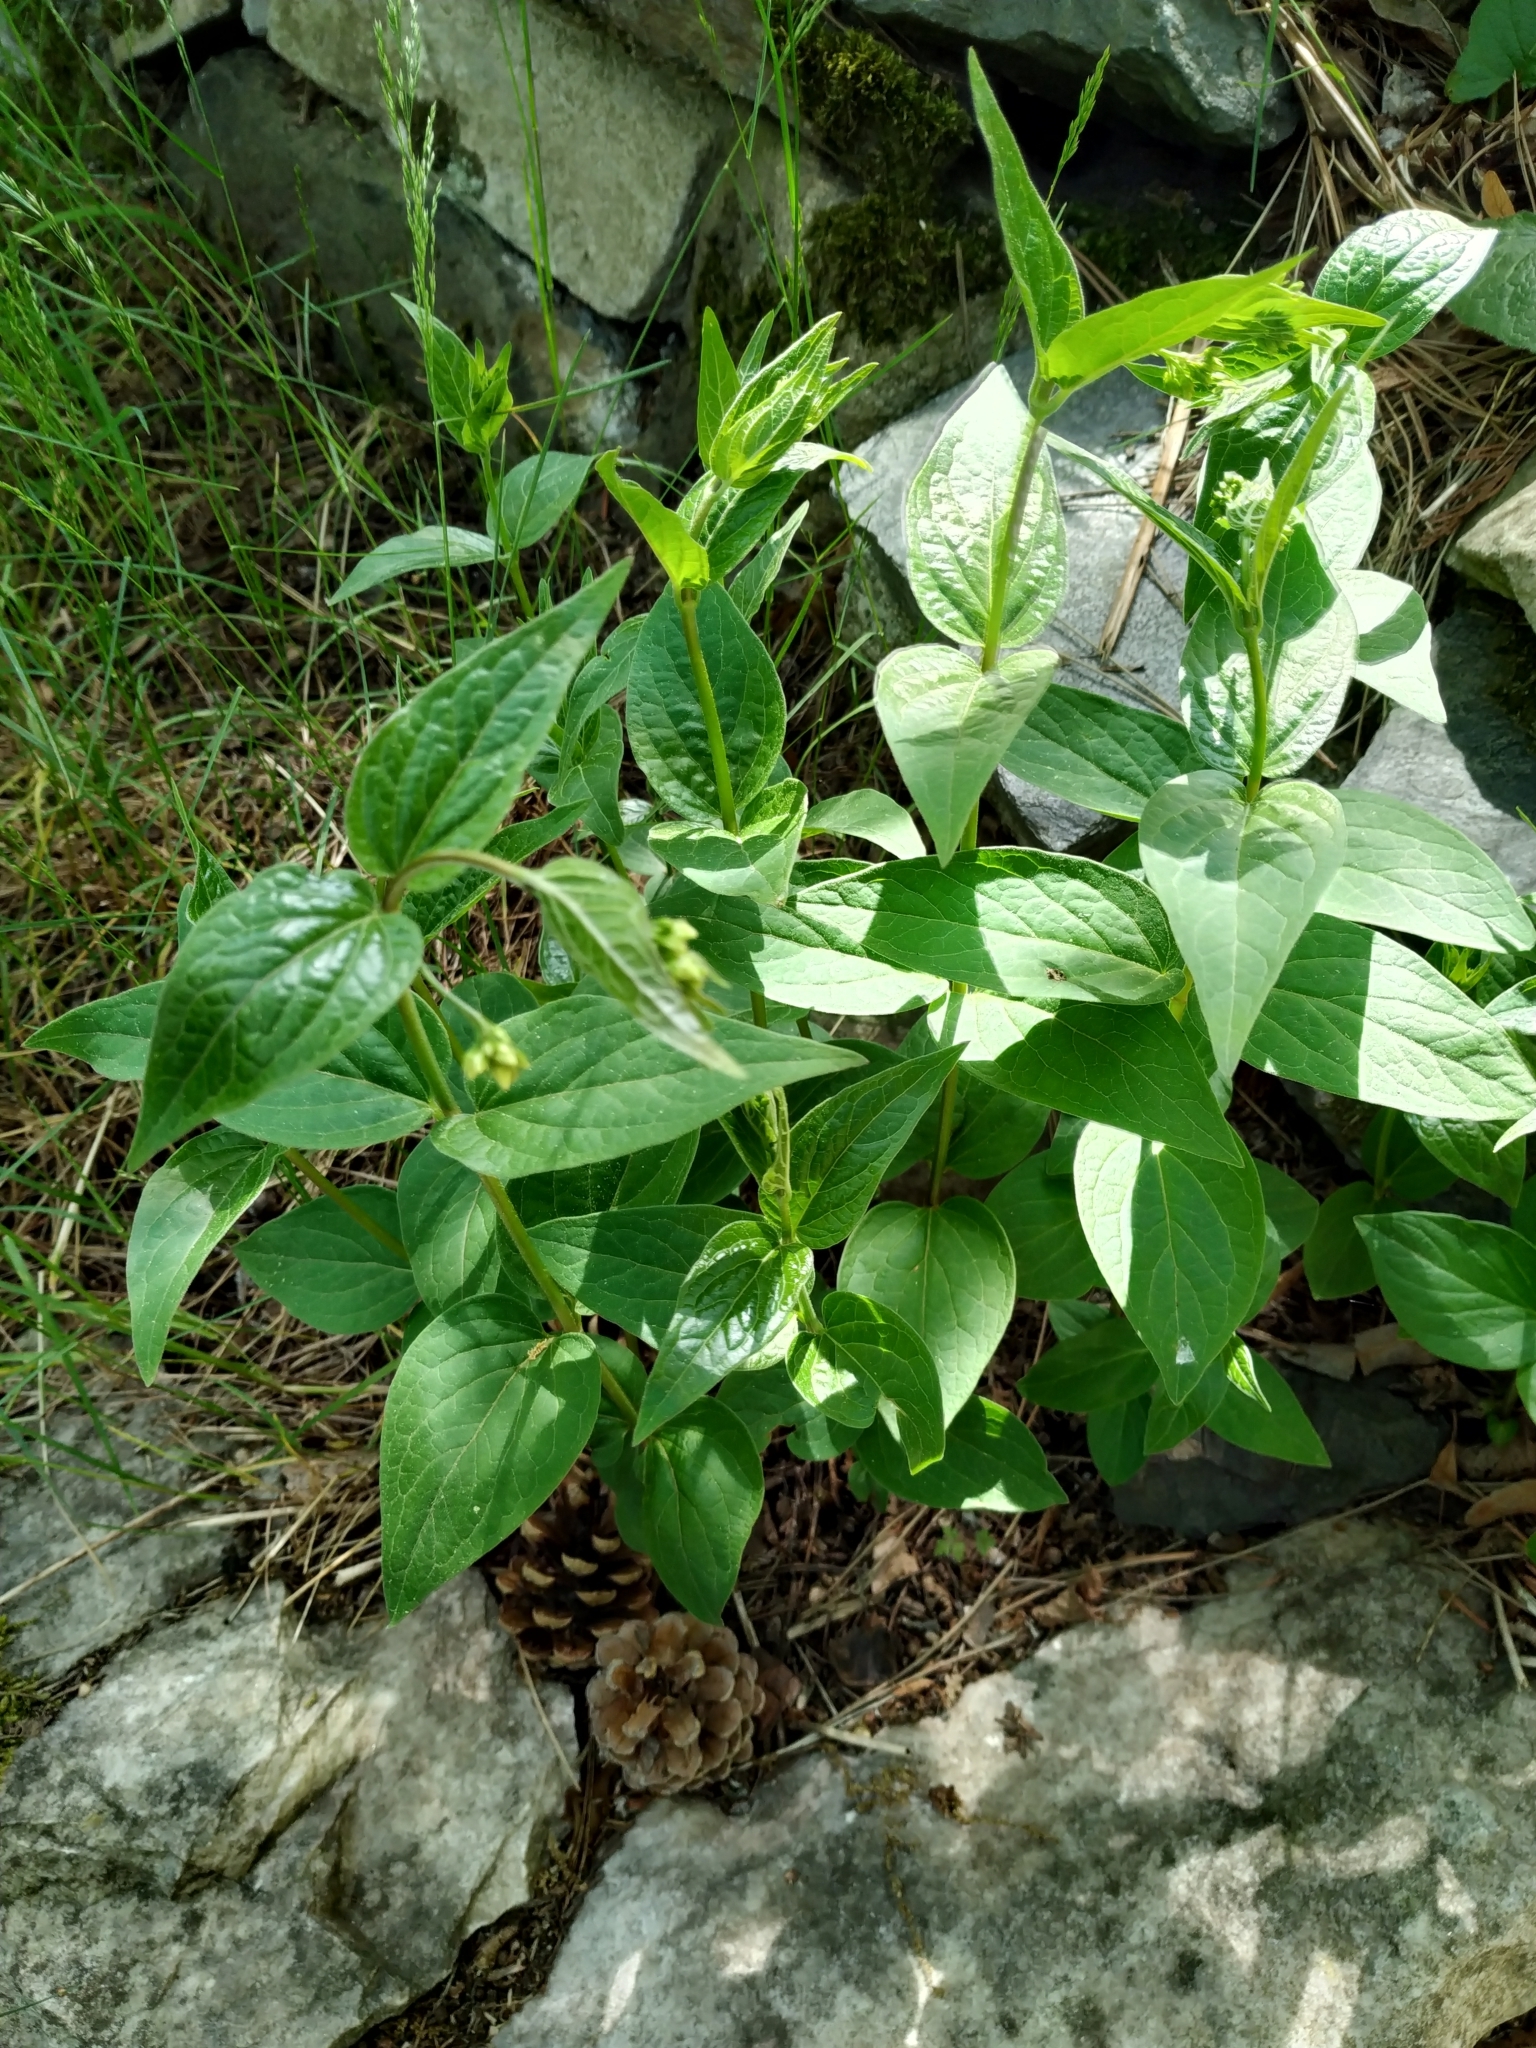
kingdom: Plantae
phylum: Tracheophyta
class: Magnoliopsida
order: Gentianales
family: Apocynaceae
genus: Vincetoxicum
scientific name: Vincetoxicum hirundinaria
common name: White swallowwort
